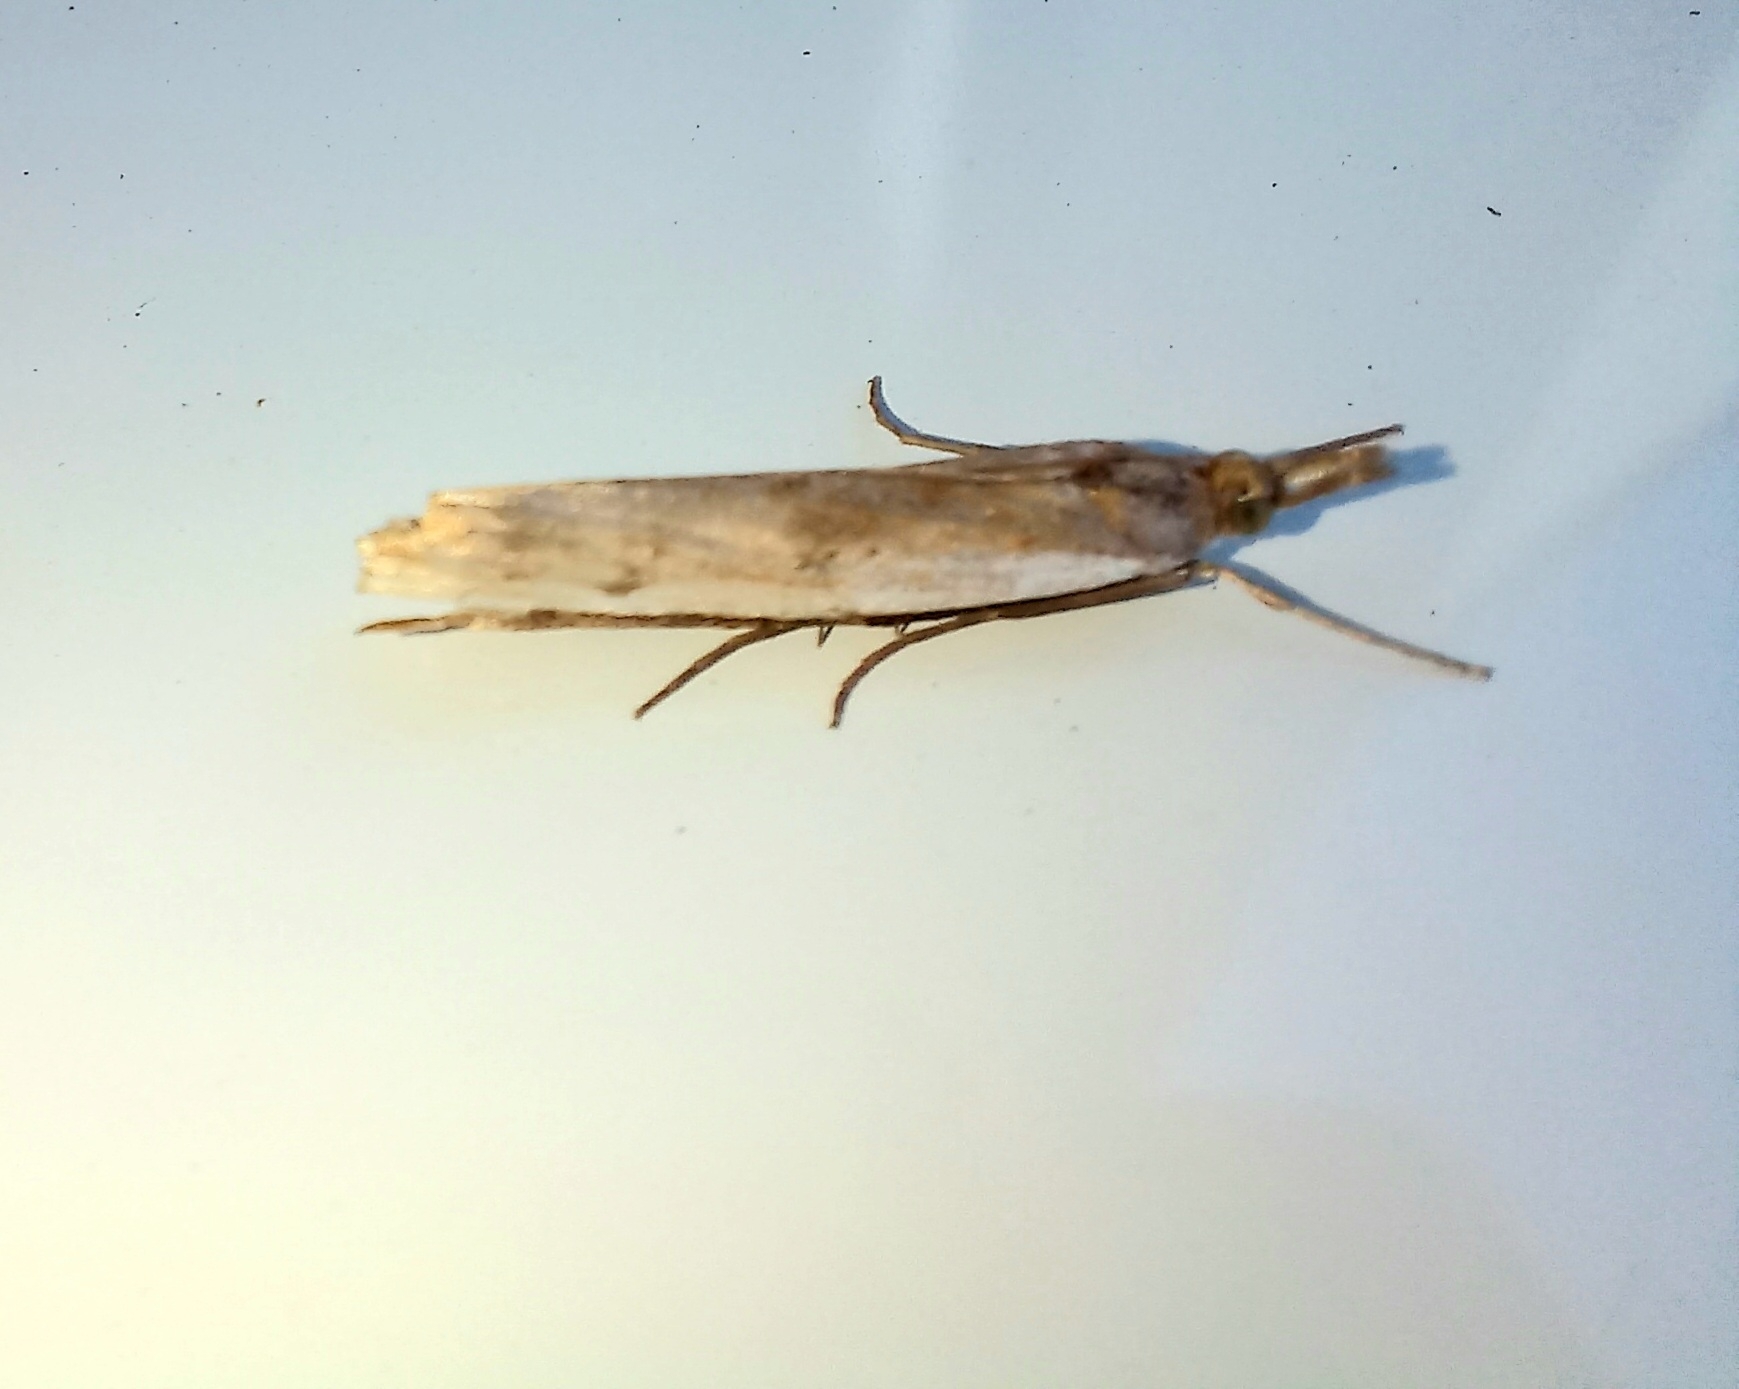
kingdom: Animalia
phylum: Arthropoda
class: Insecta
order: Lepidoptera
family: Crambidae
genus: Orocrambus
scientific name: Orocrambus flexuosellus
